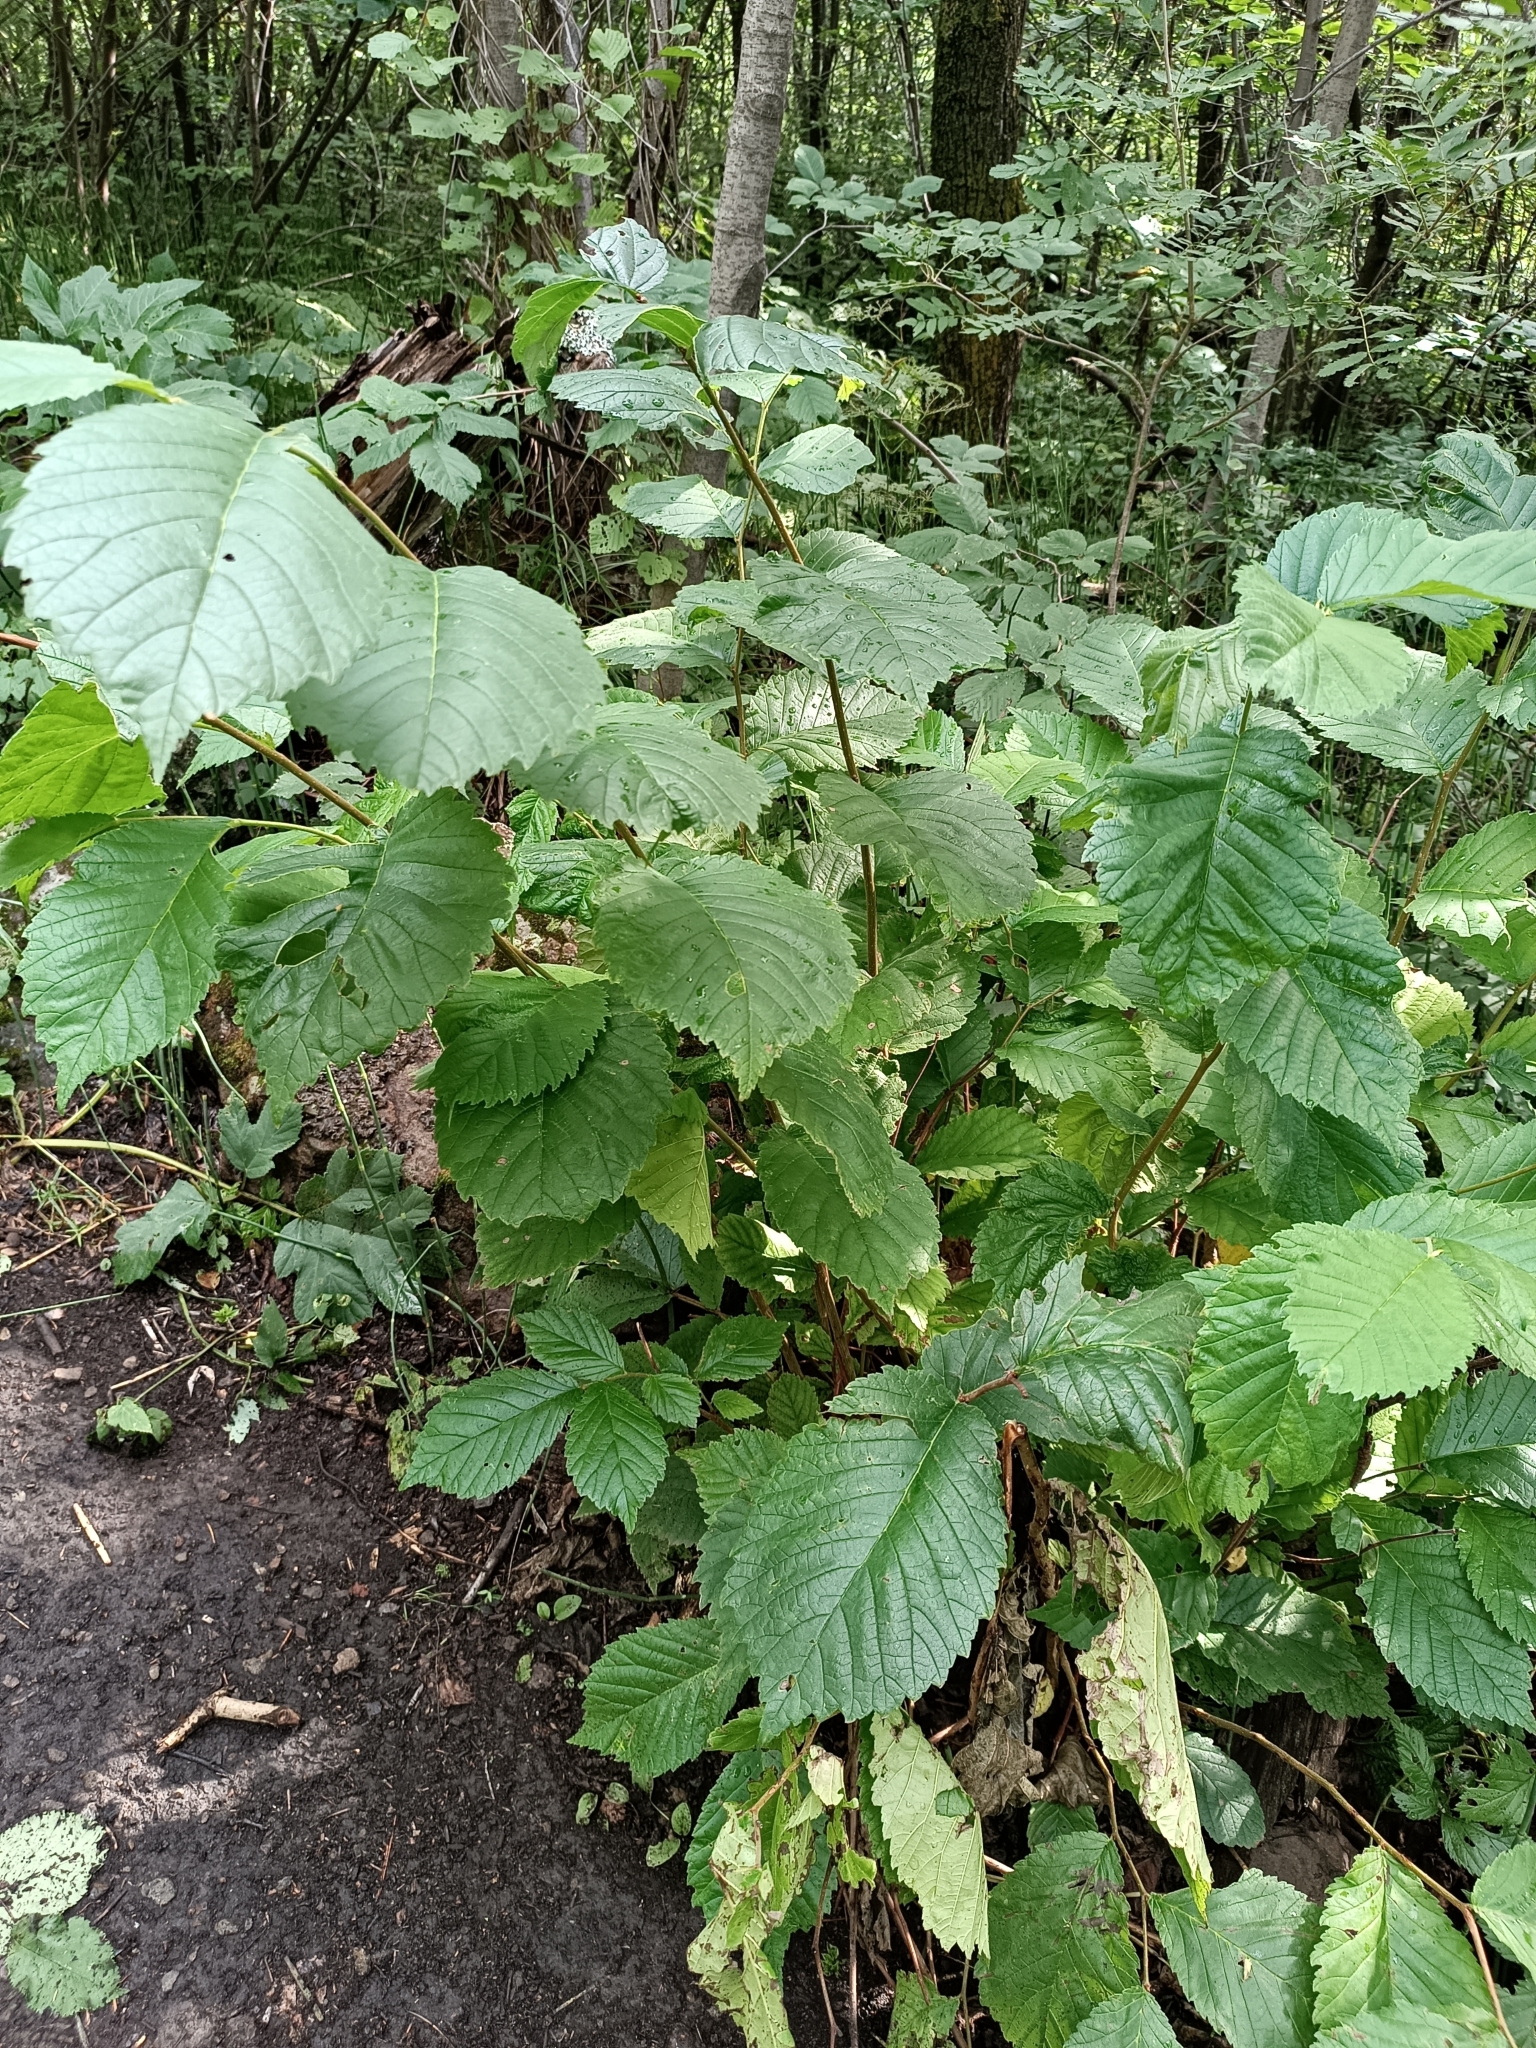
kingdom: Plantae
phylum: Tracheophyta
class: Magnoliopsida
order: Rosales
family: Ulmaceae
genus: Ulmus
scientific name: Ulmus glabra
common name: Wych elm
